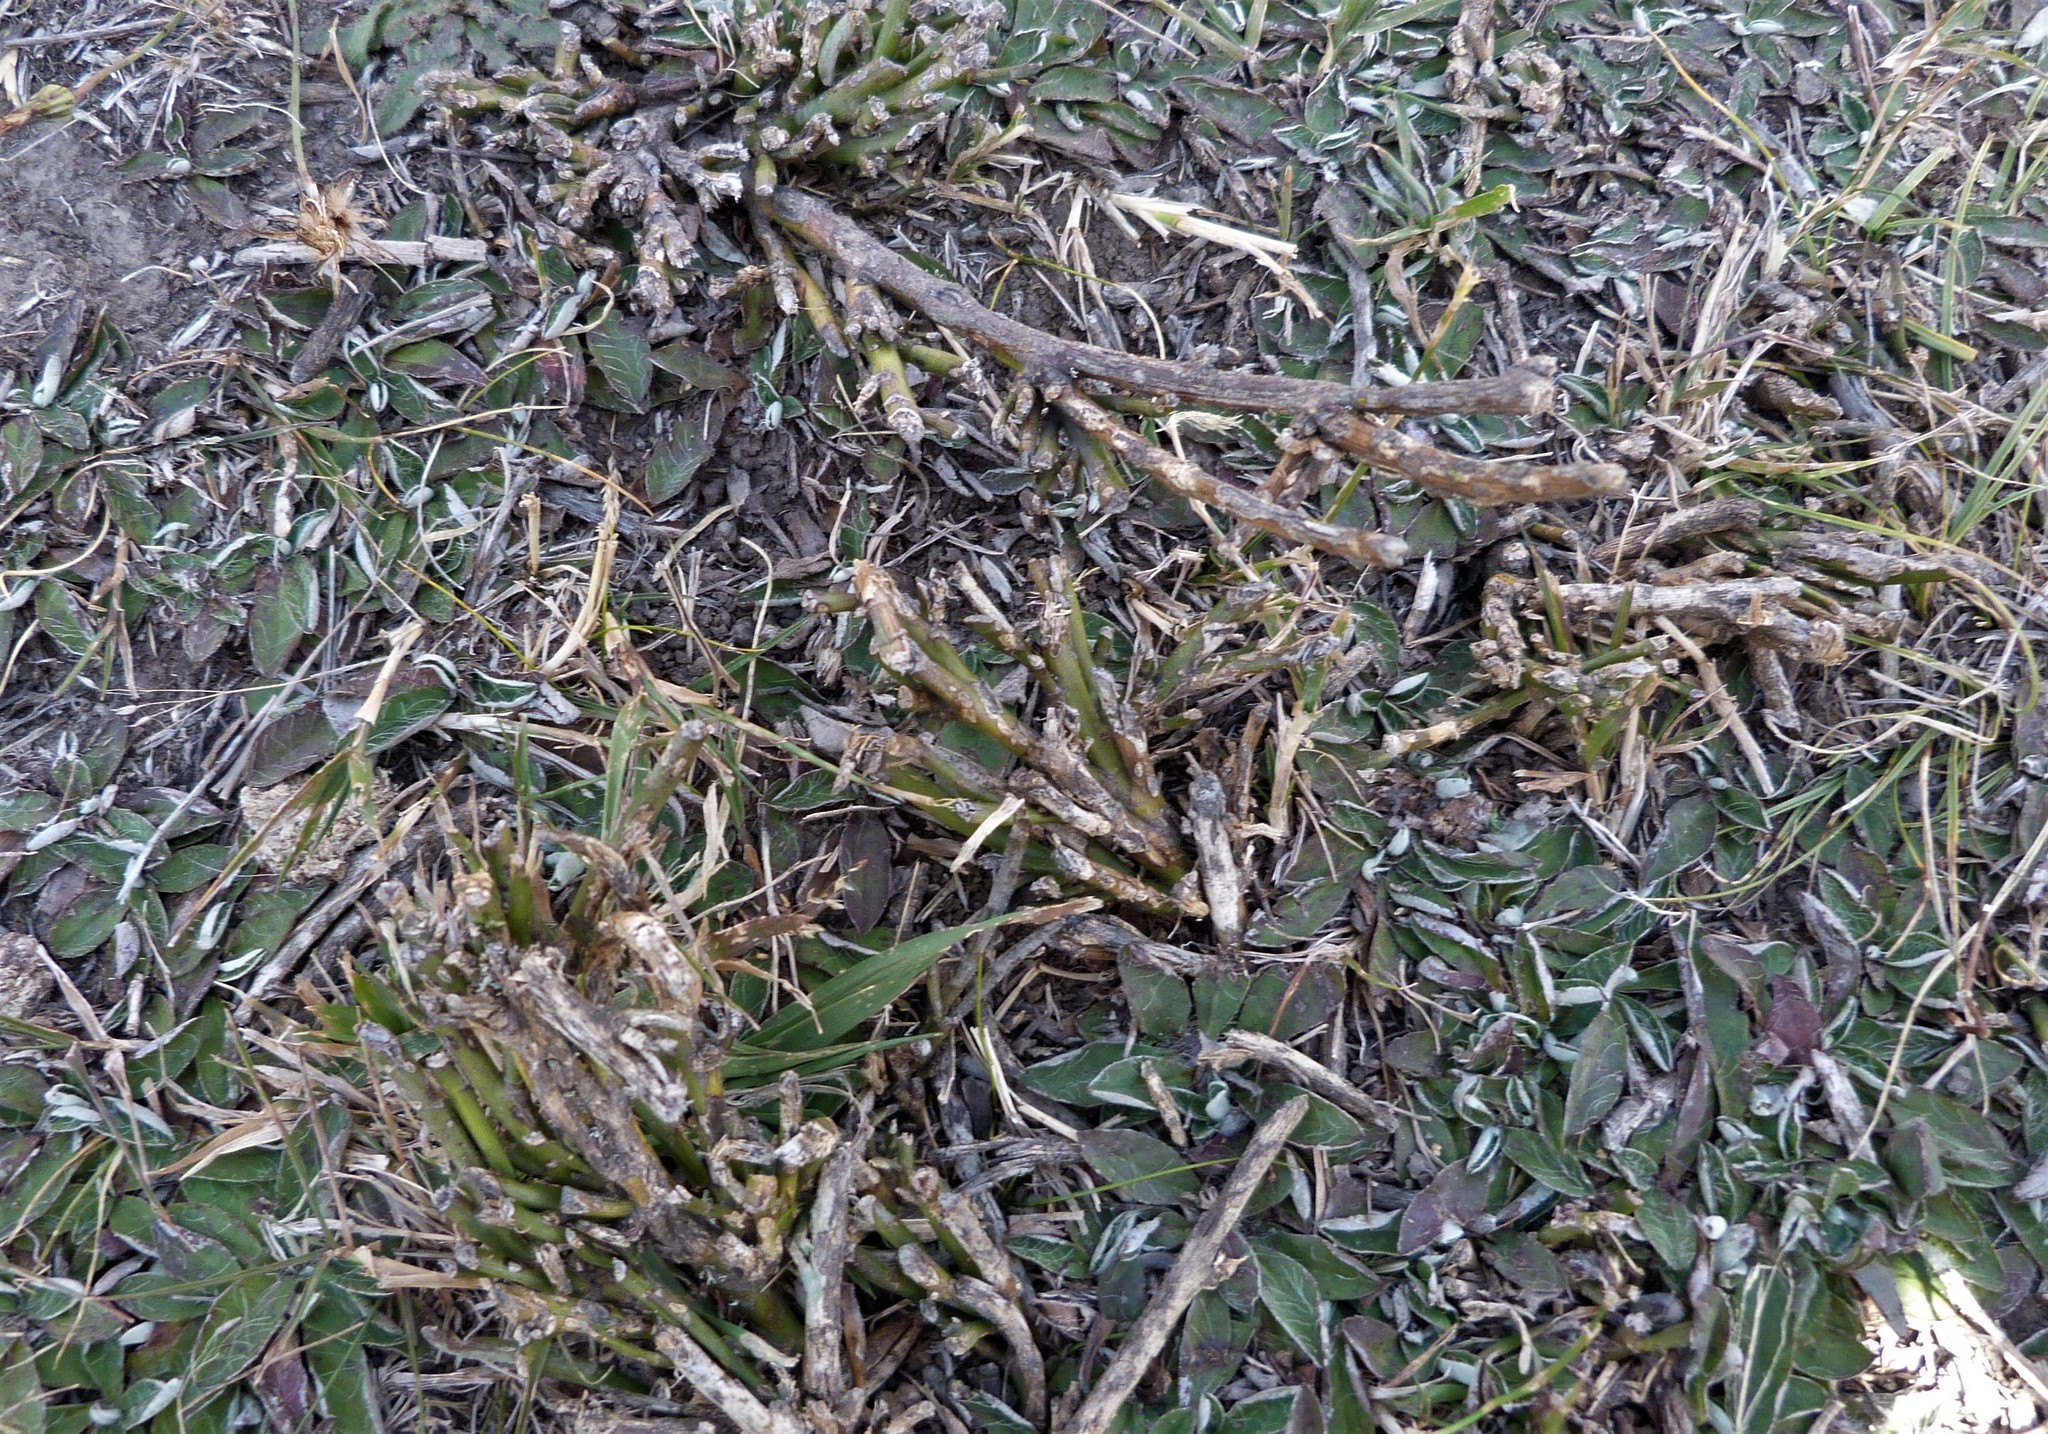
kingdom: Plantae
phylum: Tracheophyta
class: Magnoliopsida
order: Fabales
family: Fabaceae
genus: Carmichaelia
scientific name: Carmichaelia australis
